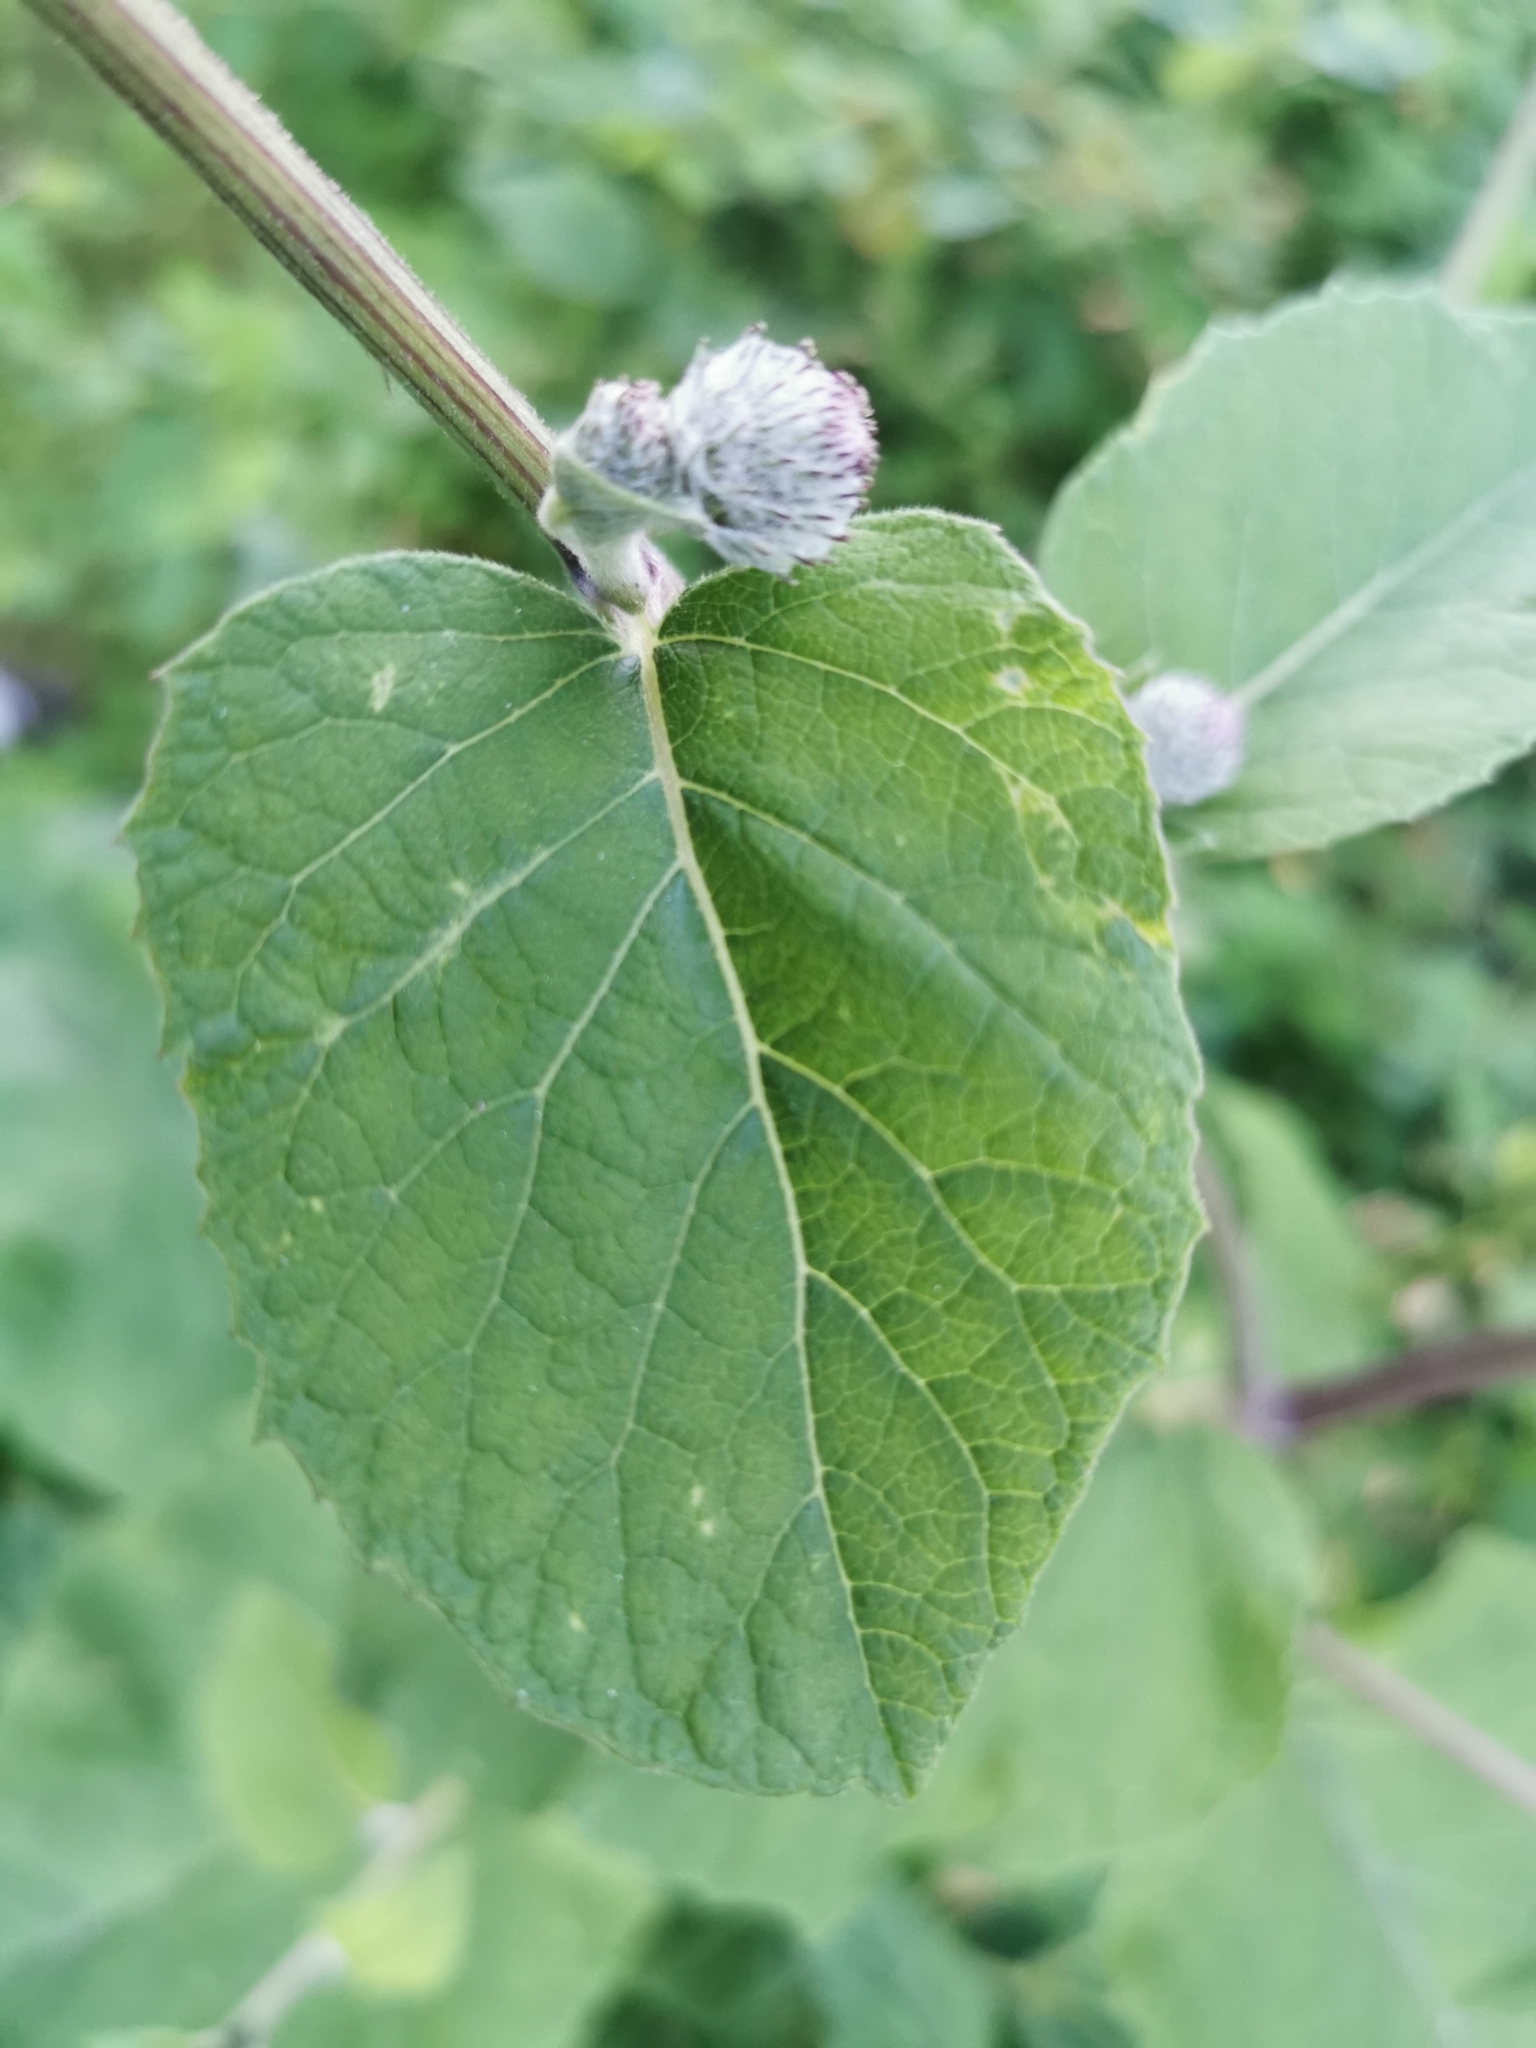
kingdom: Plantae
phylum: Tracheophyta
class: Magnoliopsida
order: Asterales
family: Asteraceae
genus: Arctium
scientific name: Arctium tomentosum
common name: Woolly burdock
